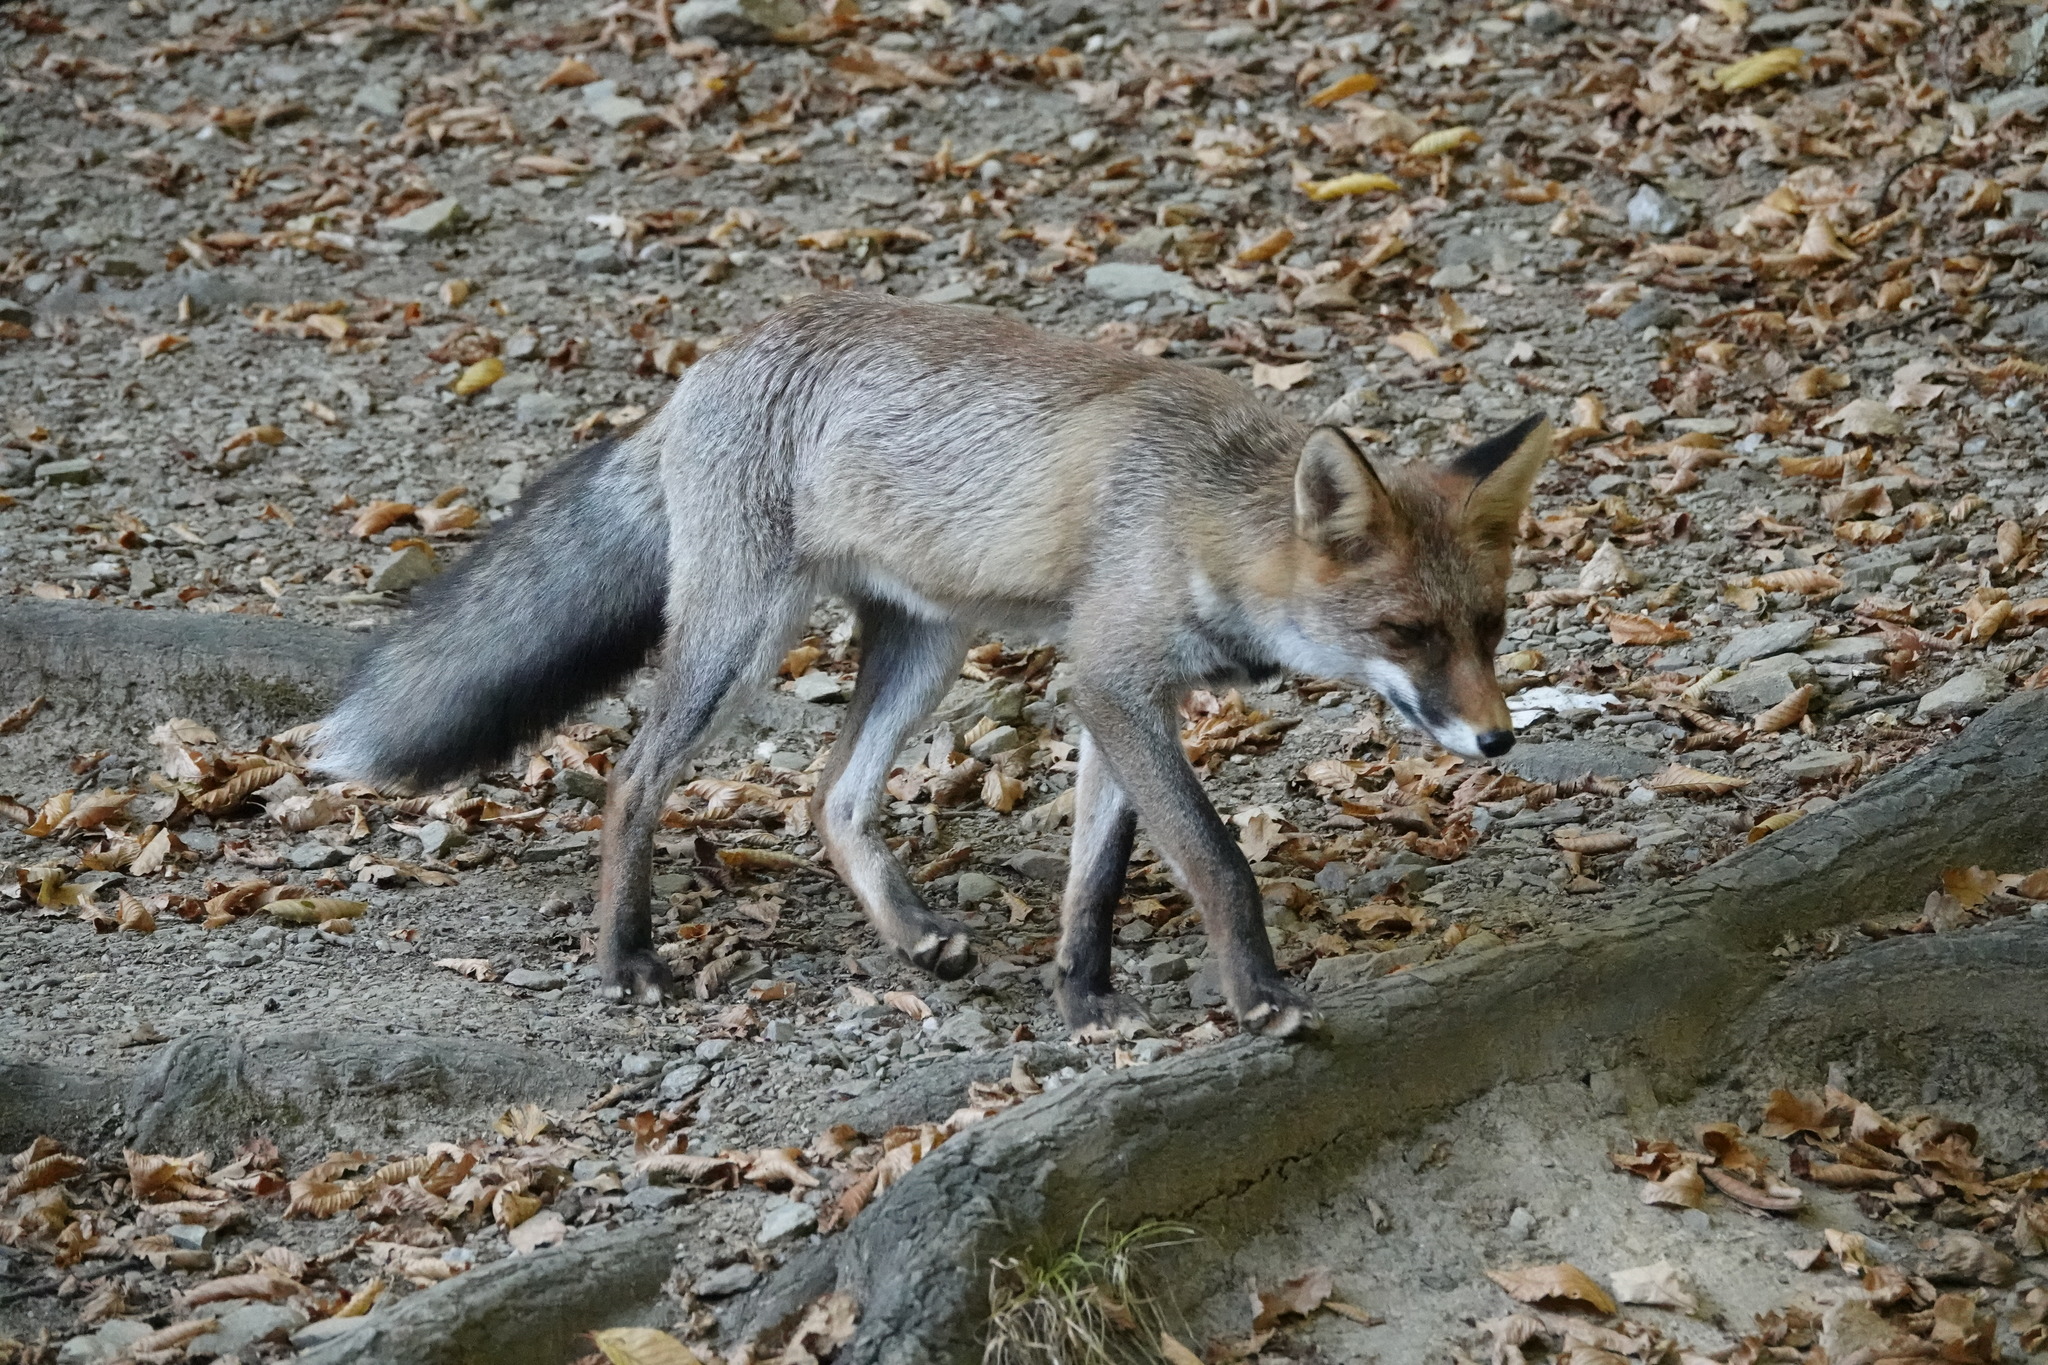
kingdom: Animalia
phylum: Chordata
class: Mammalia
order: Carnivora
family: Canidae
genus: Vulpes
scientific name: Vulpes vulpes
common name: Red fox
